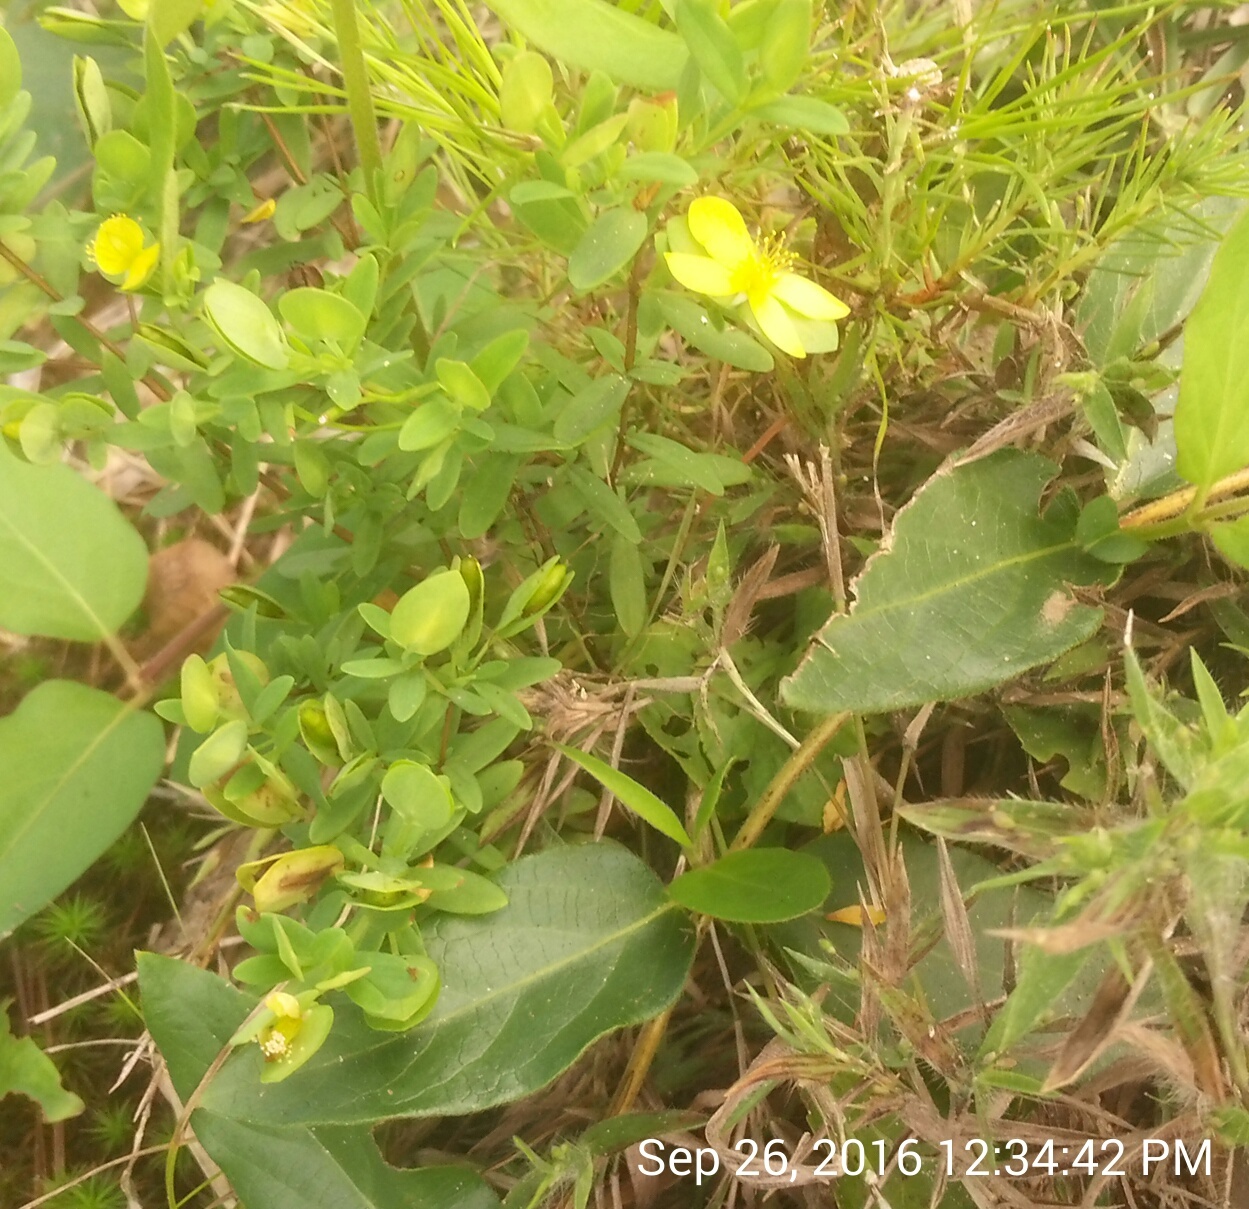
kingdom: Plantae
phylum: Tracheophyta
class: Magnoliopsida
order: Malpighiales
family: Hypericaceae
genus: Hypericum
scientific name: Hypericum hypericoides
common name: St. andrew's cross
